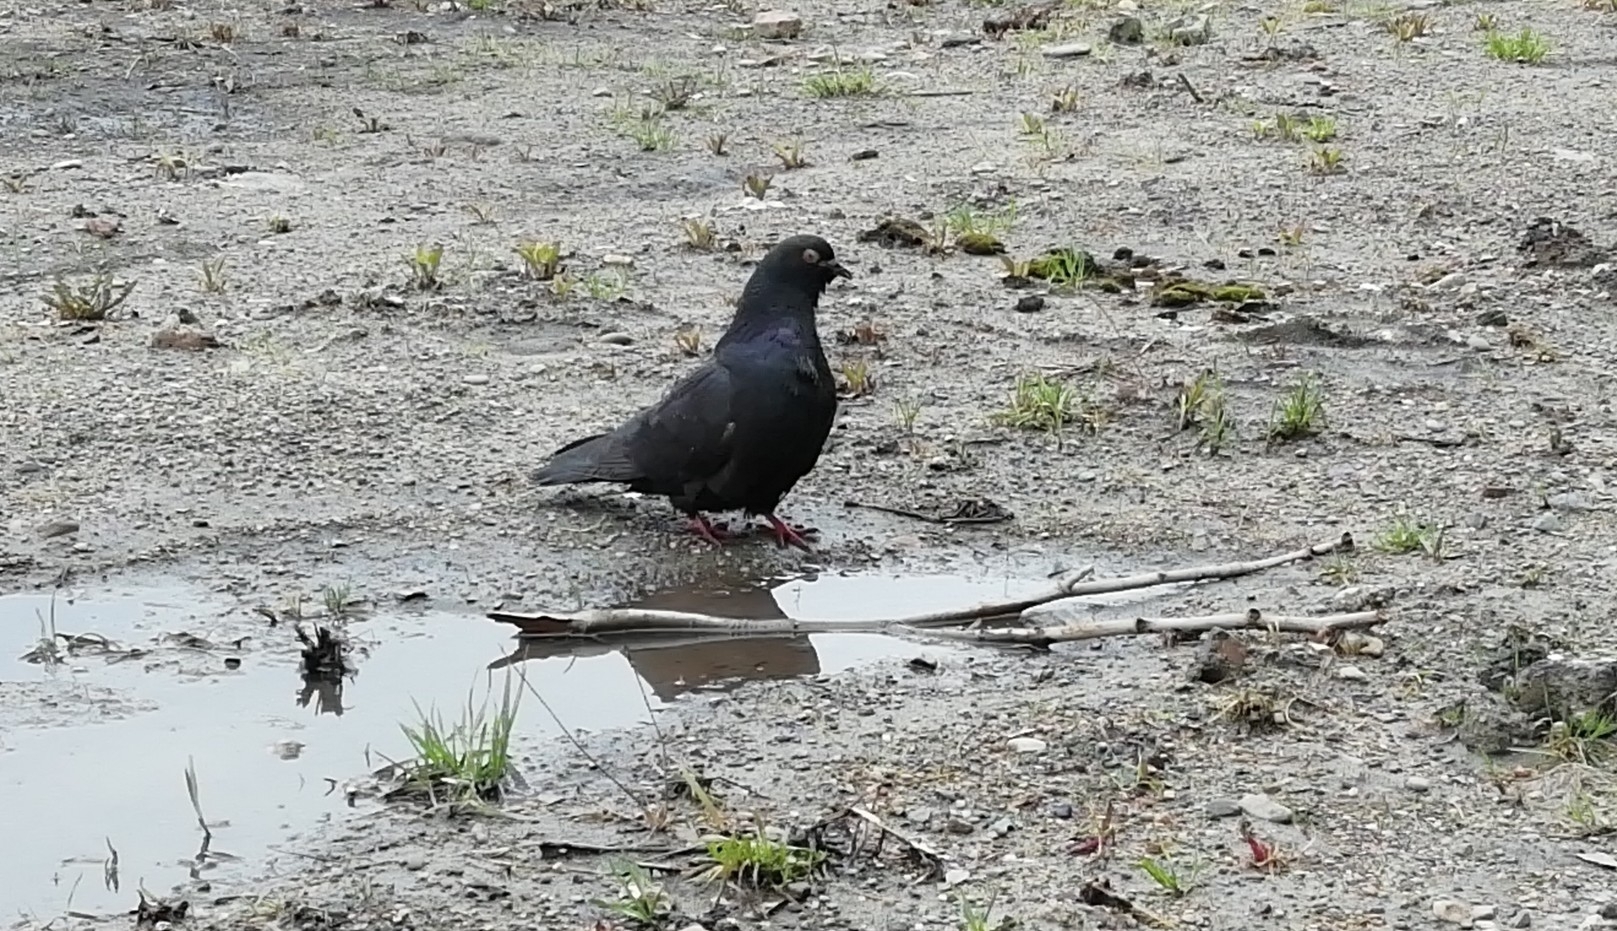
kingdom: Animalia
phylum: Chordata
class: Aves
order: Columbiformes
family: Columbidae
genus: Columba
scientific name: Columba livia
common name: Rock pigeon
